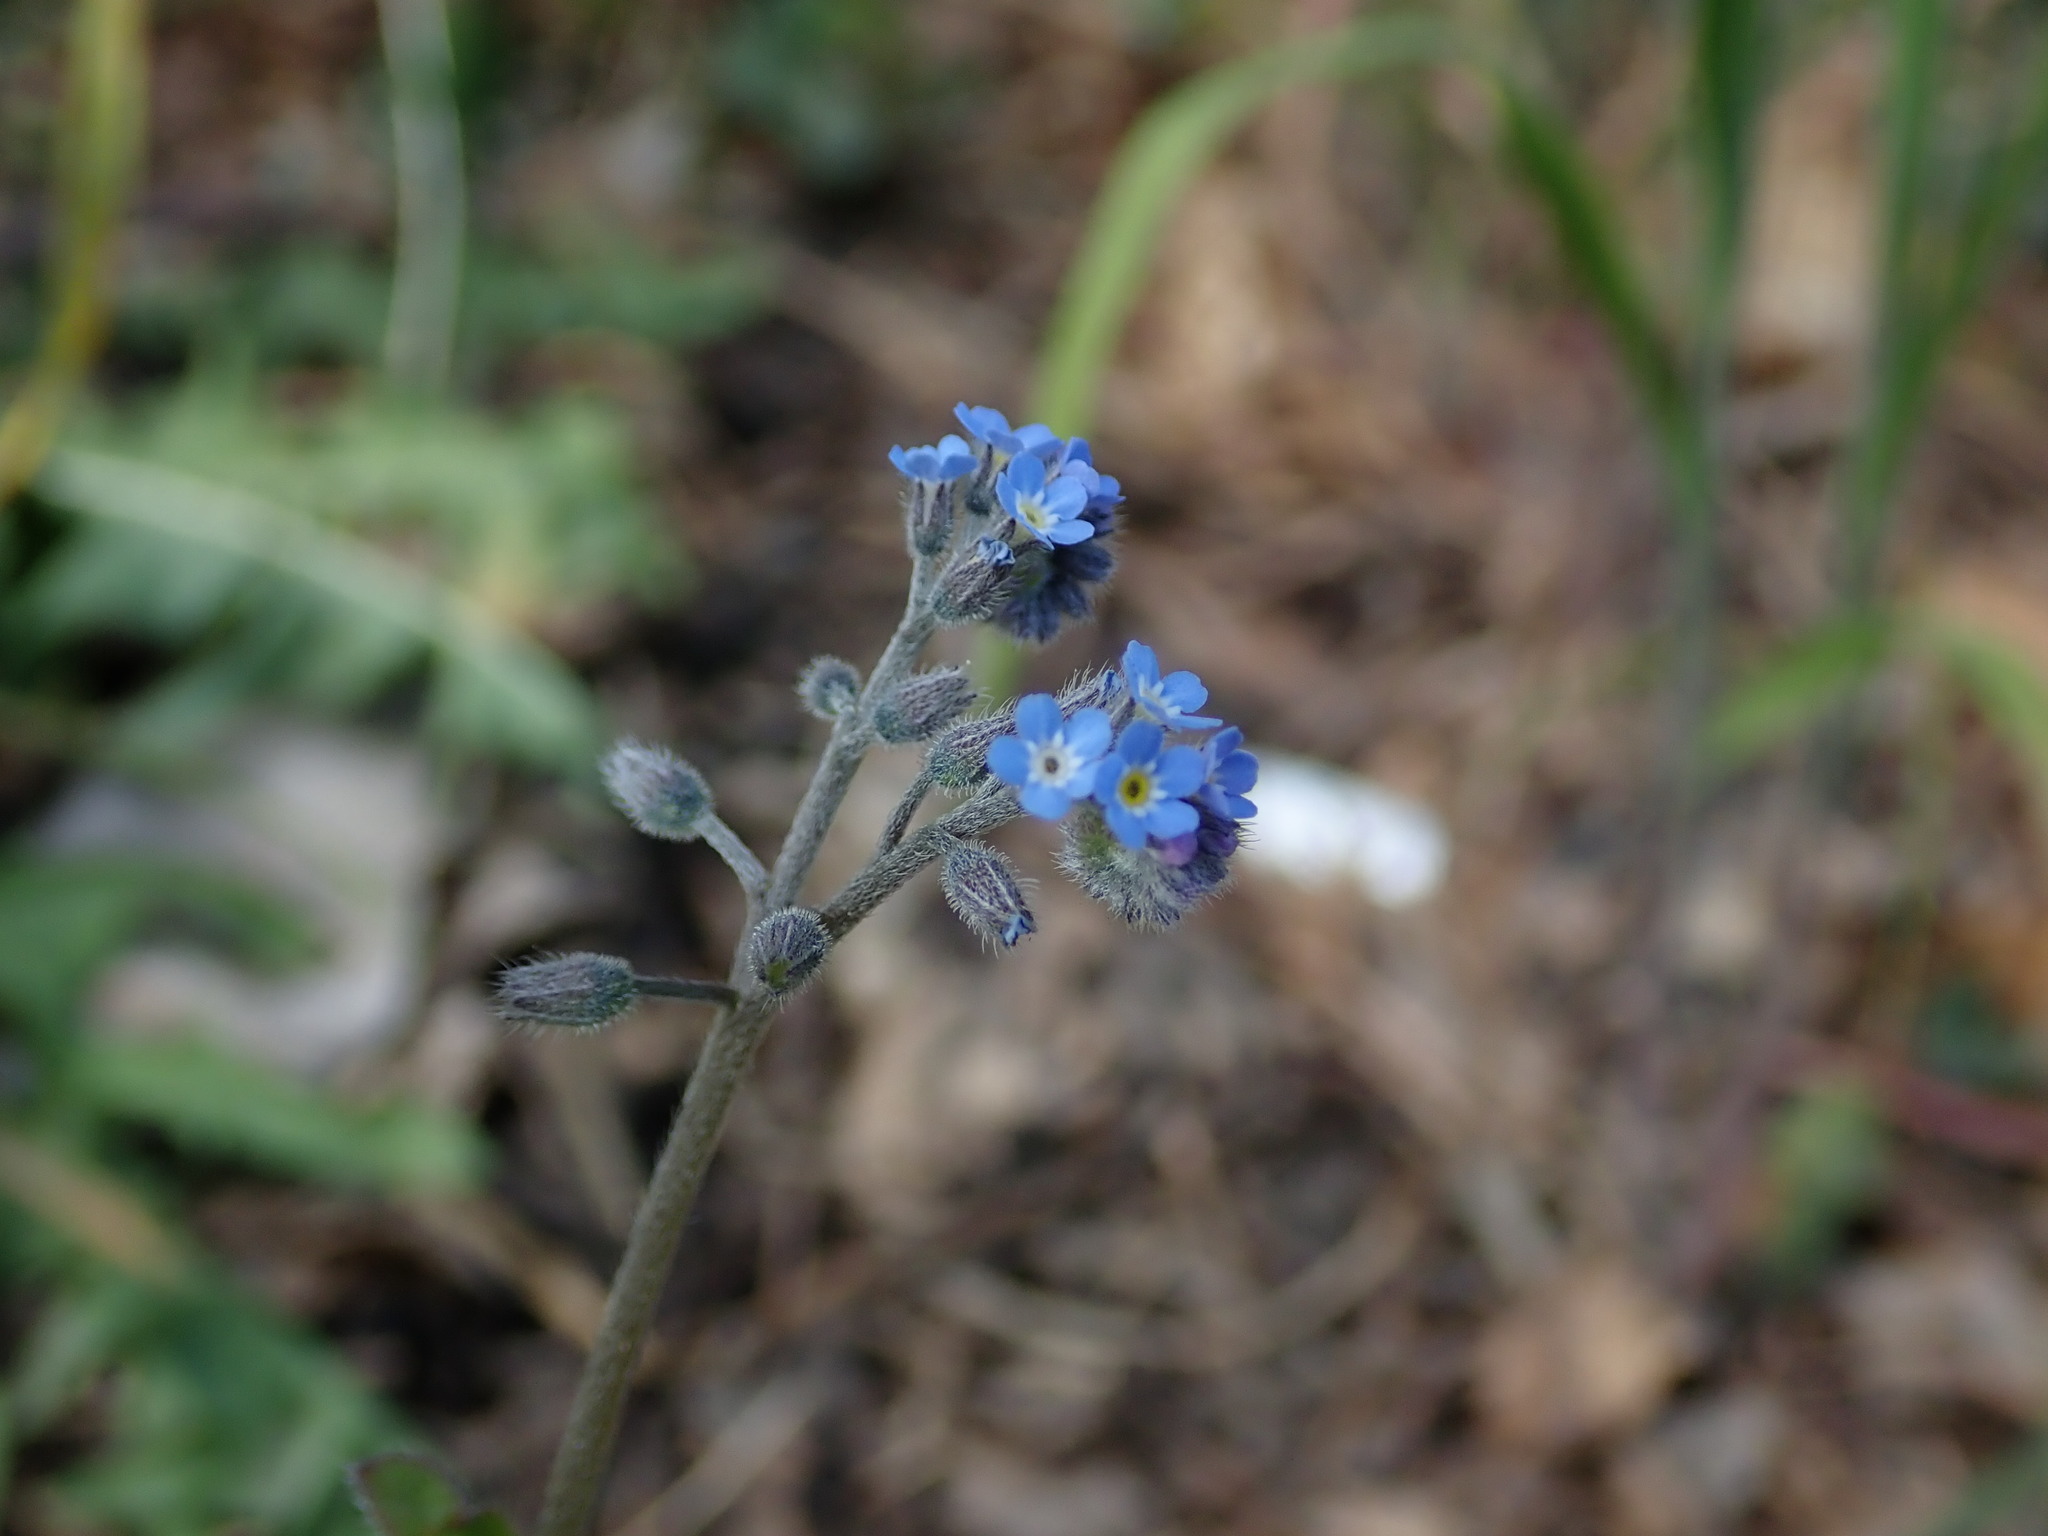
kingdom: Plantae
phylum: Tracheophyta
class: Magnoliopsida
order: Boraginales
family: Boraginaceae
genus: Myosotis
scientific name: Myosotis arvensis
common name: Field forget-me-not
